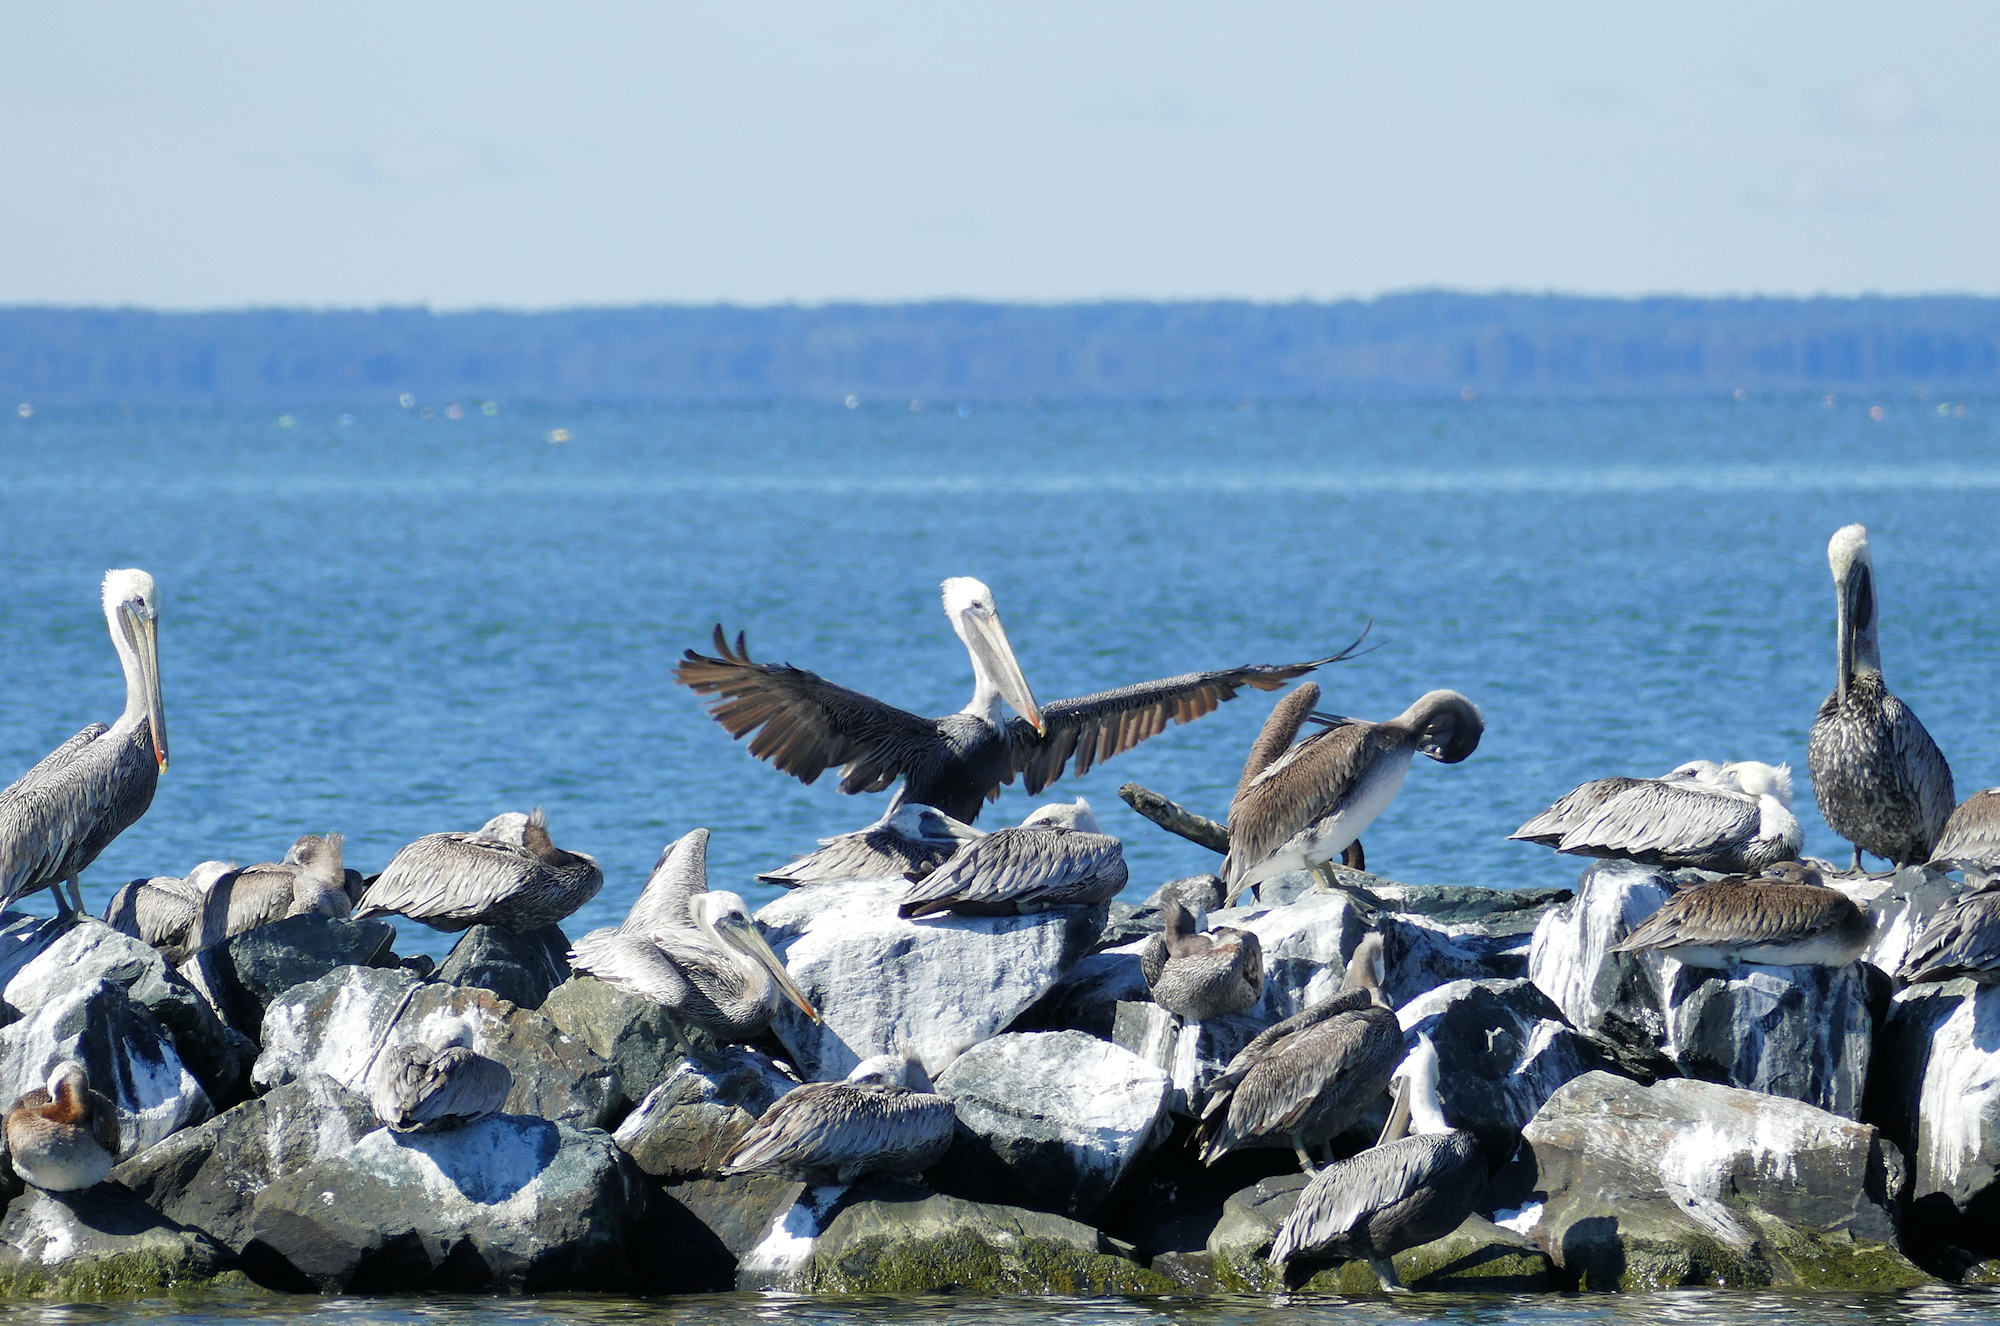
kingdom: Animalia
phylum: Chordata
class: Aves
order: Pelecaniformes
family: Pelecanidae
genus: Pelecanus
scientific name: Pelecanus occidentalis
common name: Brown pelican
